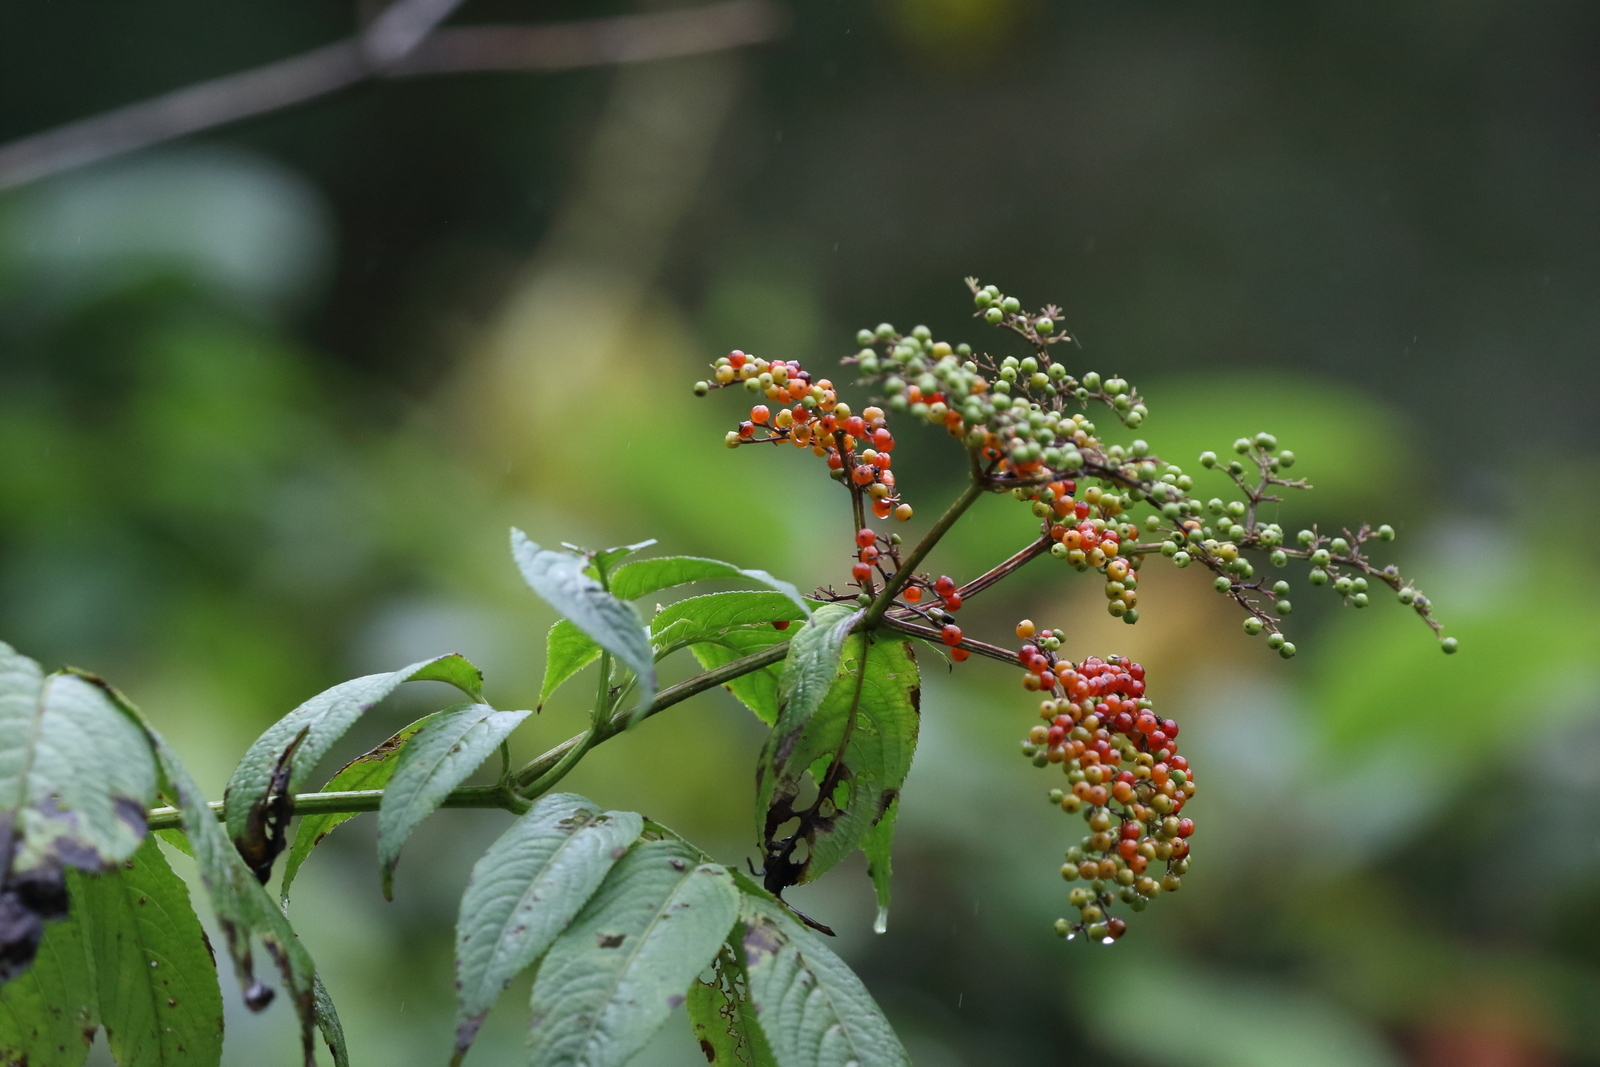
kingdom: Plantae
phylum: Tracheophyta
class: Magnoliopsida
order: Dipsacales
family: Viburnaceae
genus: Sambucus
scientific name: Sambucus javanica
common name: Chinese elder
